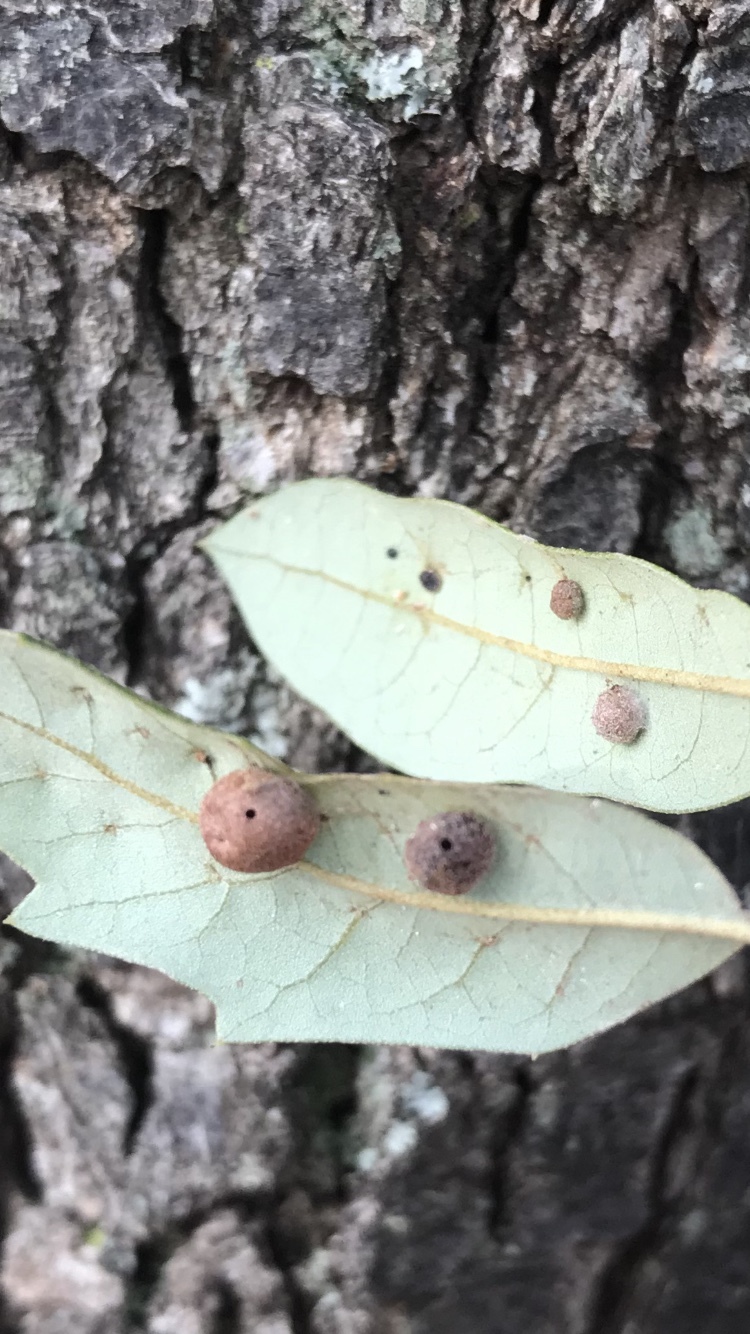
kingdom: Animalia
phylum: Arthropoda
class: Insecta
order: Hymenoptera
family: Cynipidae
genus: Belonocnema
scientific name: Belonocnema kinseyi
